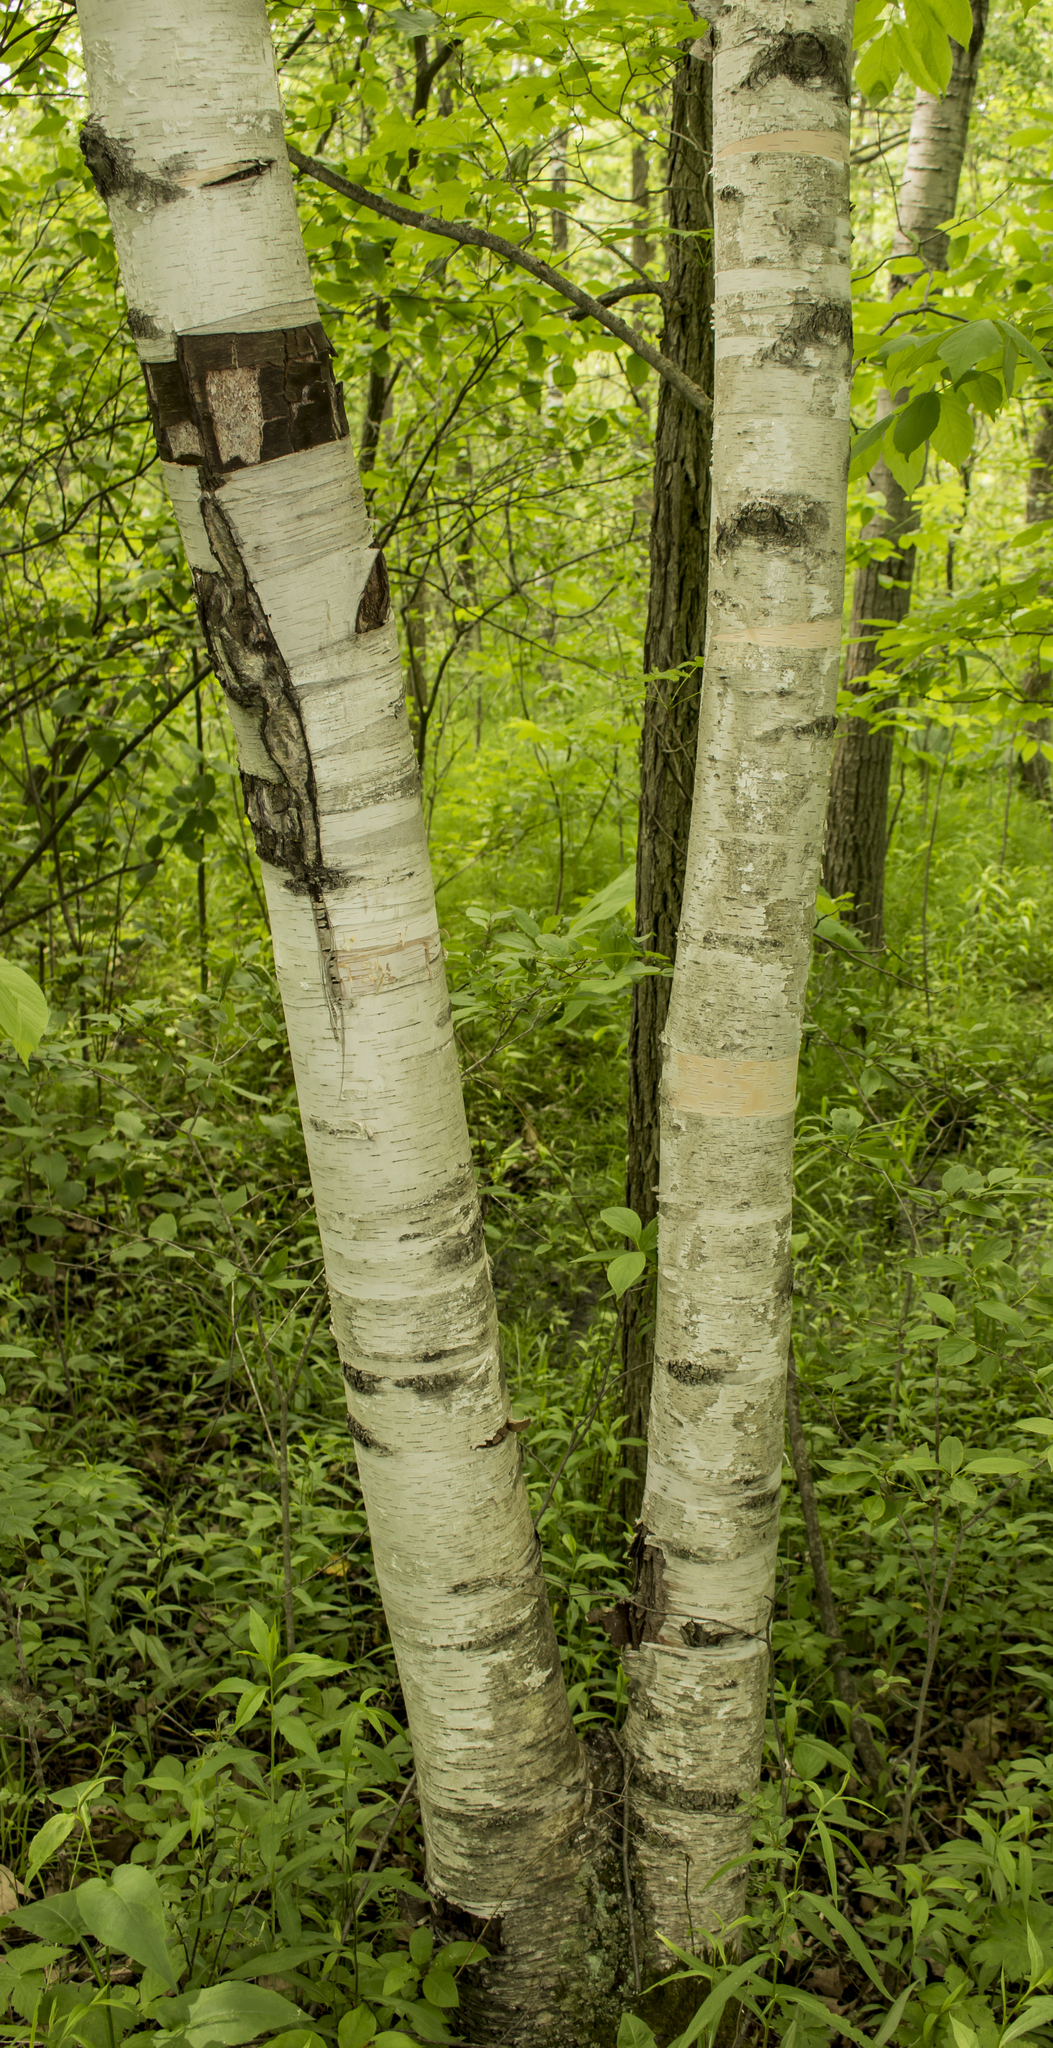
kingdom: Plantae
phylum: Tracheophyta
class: Magnoliopsida
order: Fagales
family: Betulaceae
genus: Betula
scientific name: Betula papyrifera
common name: Paper birch
